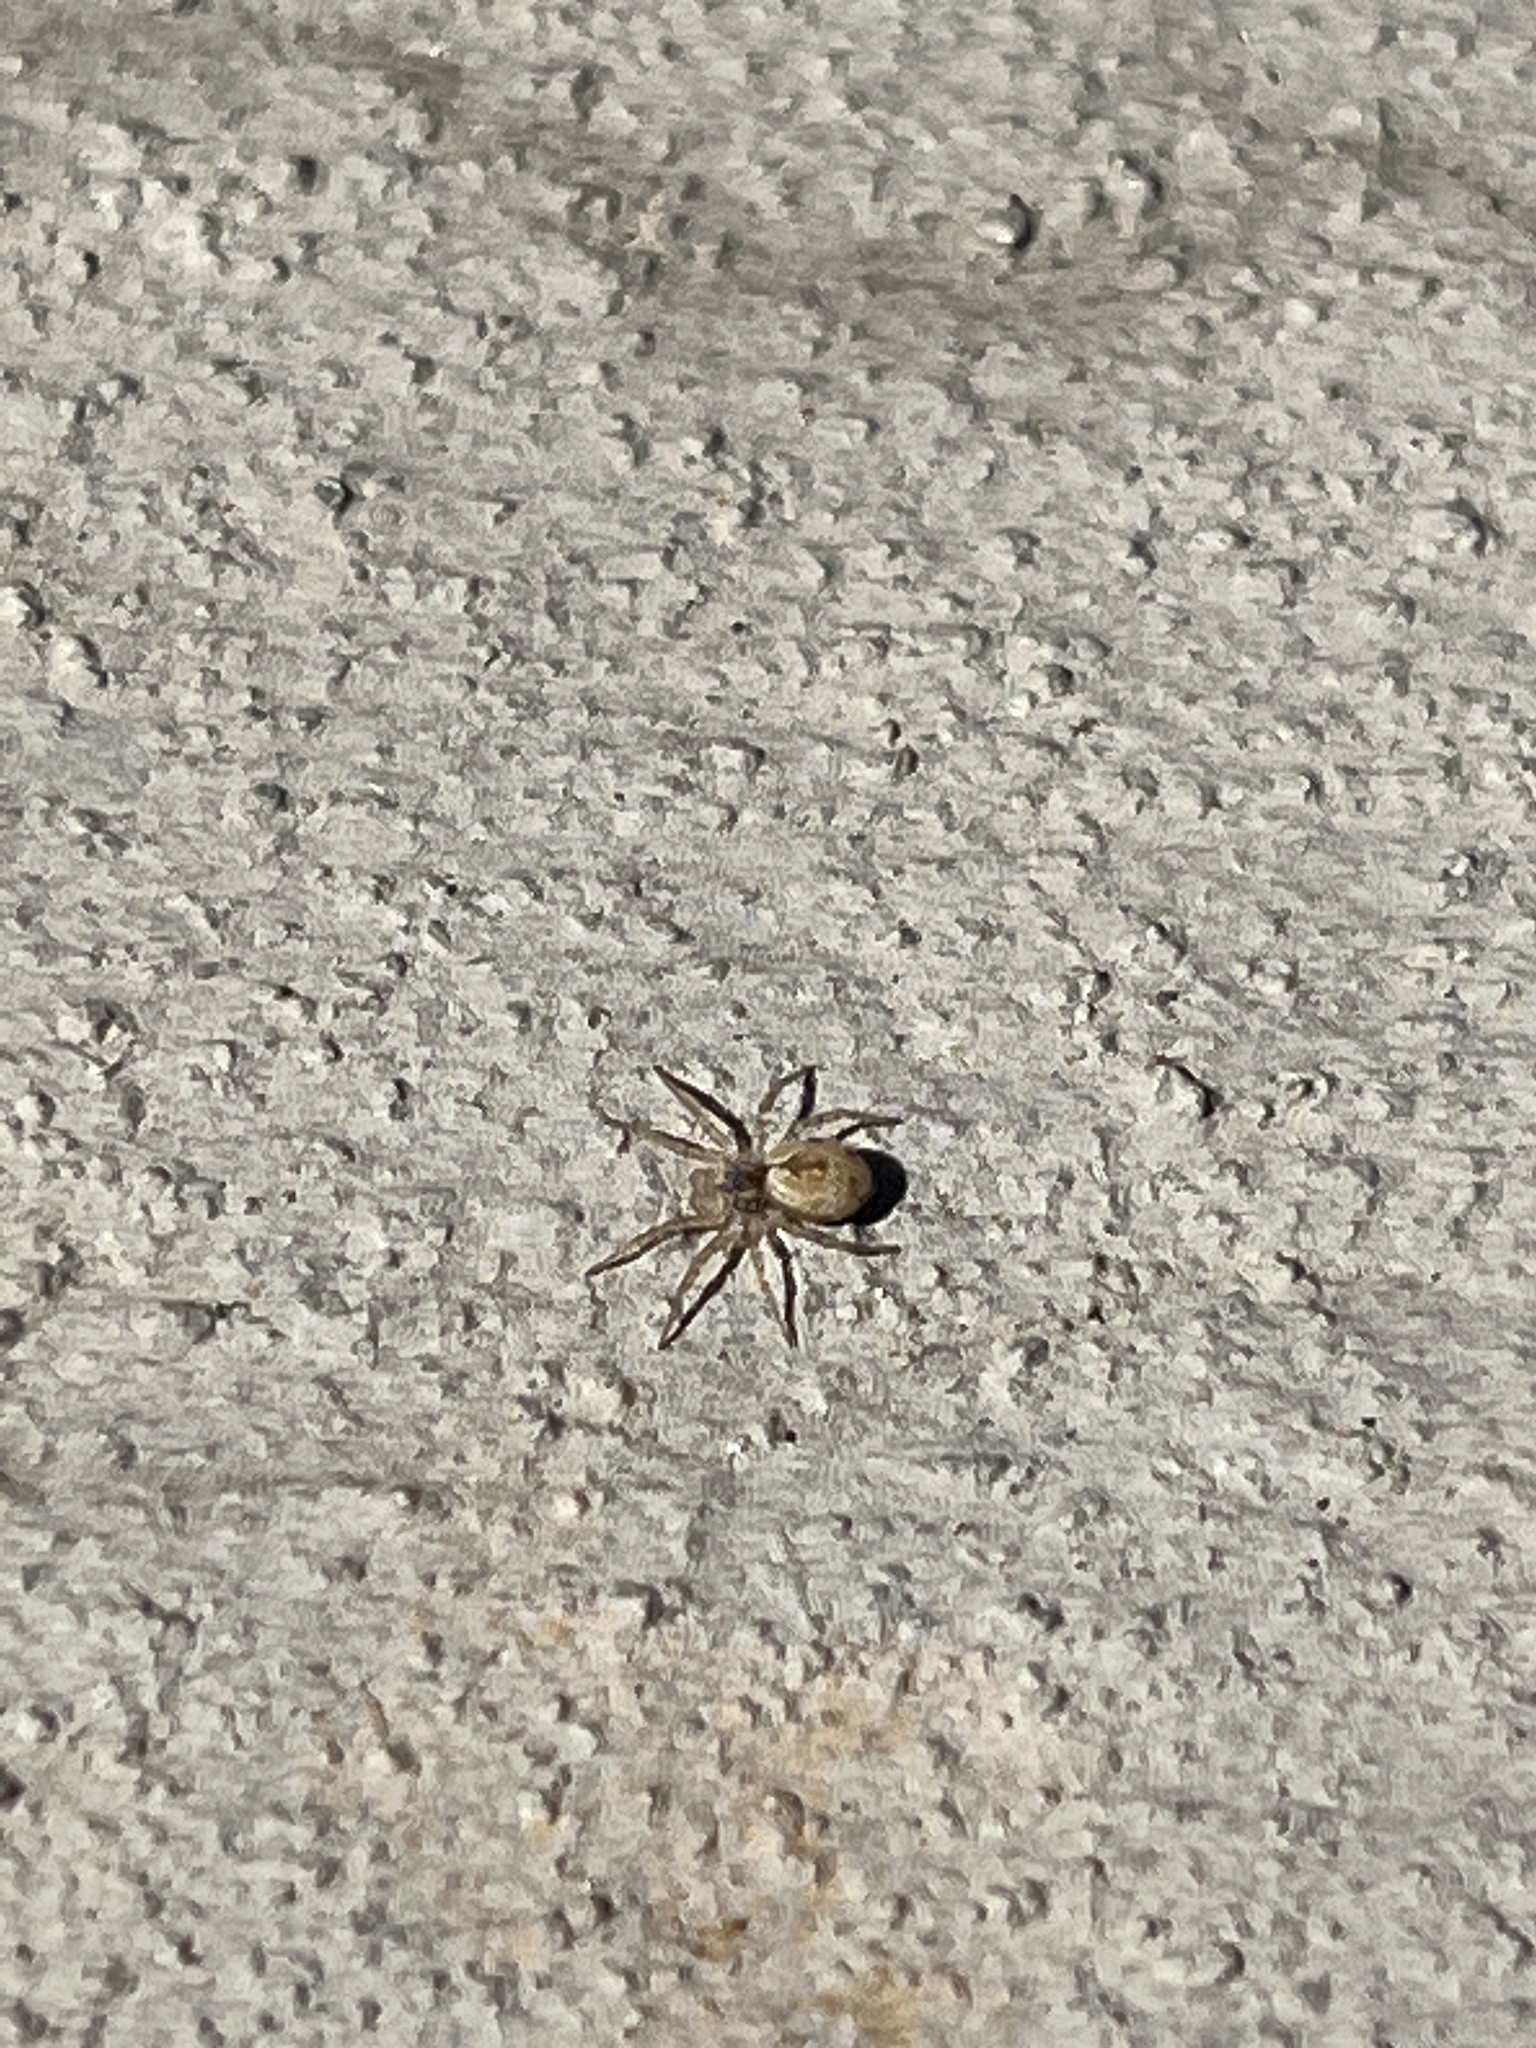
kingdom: Animalia
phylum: Arthropoda
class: Arachnida
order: Araneae
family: Oecobiidae
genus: Oecobius
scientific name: Oecobius maculatus
